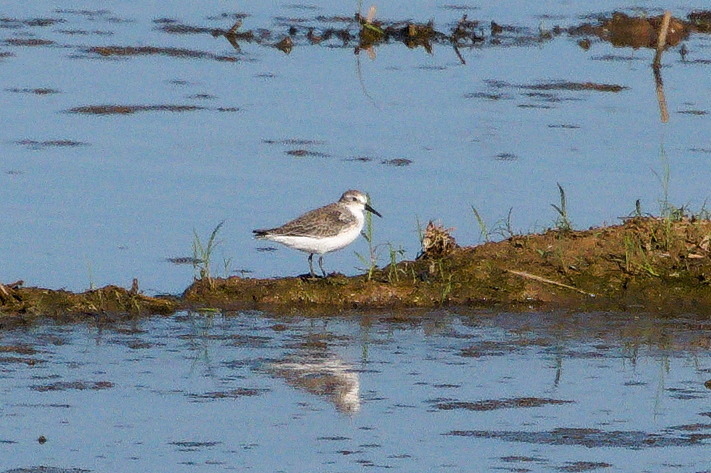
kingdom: Animalia
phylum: Chordata
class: Aves
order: Charadriiformes
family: Scolopacidae
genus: Calidris
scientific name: Calidris mauri
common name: Western sandpiper
